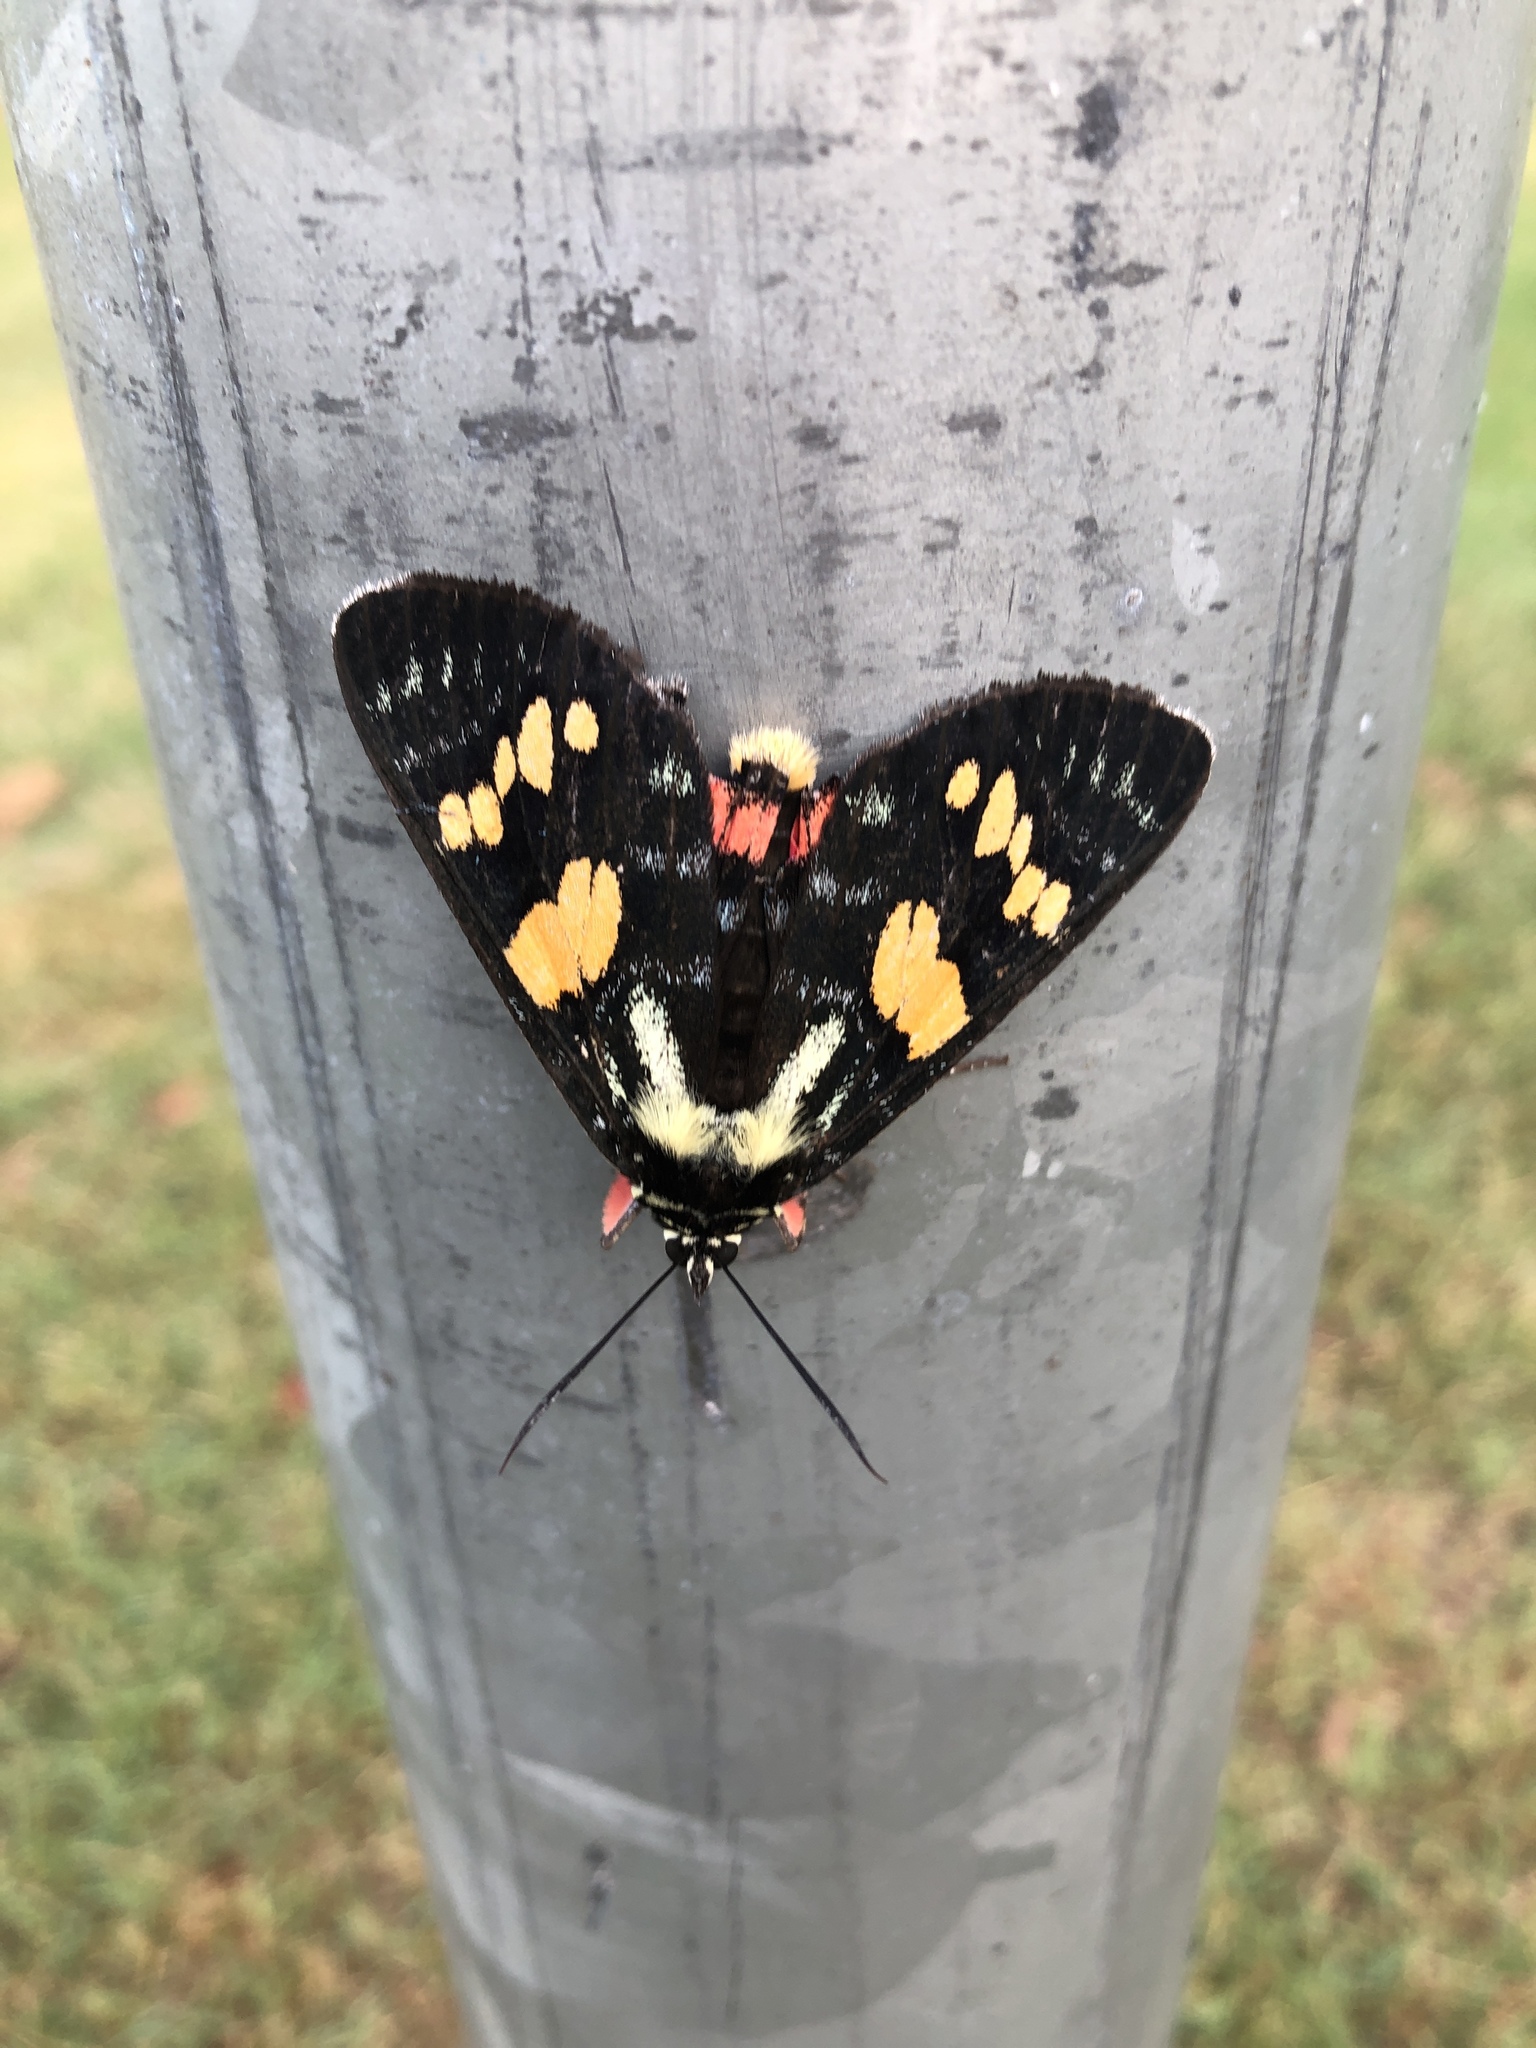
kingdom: Animalia
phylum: Arthropoda
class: Insecta
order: Lepidoptera
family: Noctuidae
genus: Agarista
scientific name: Agarista agricola
